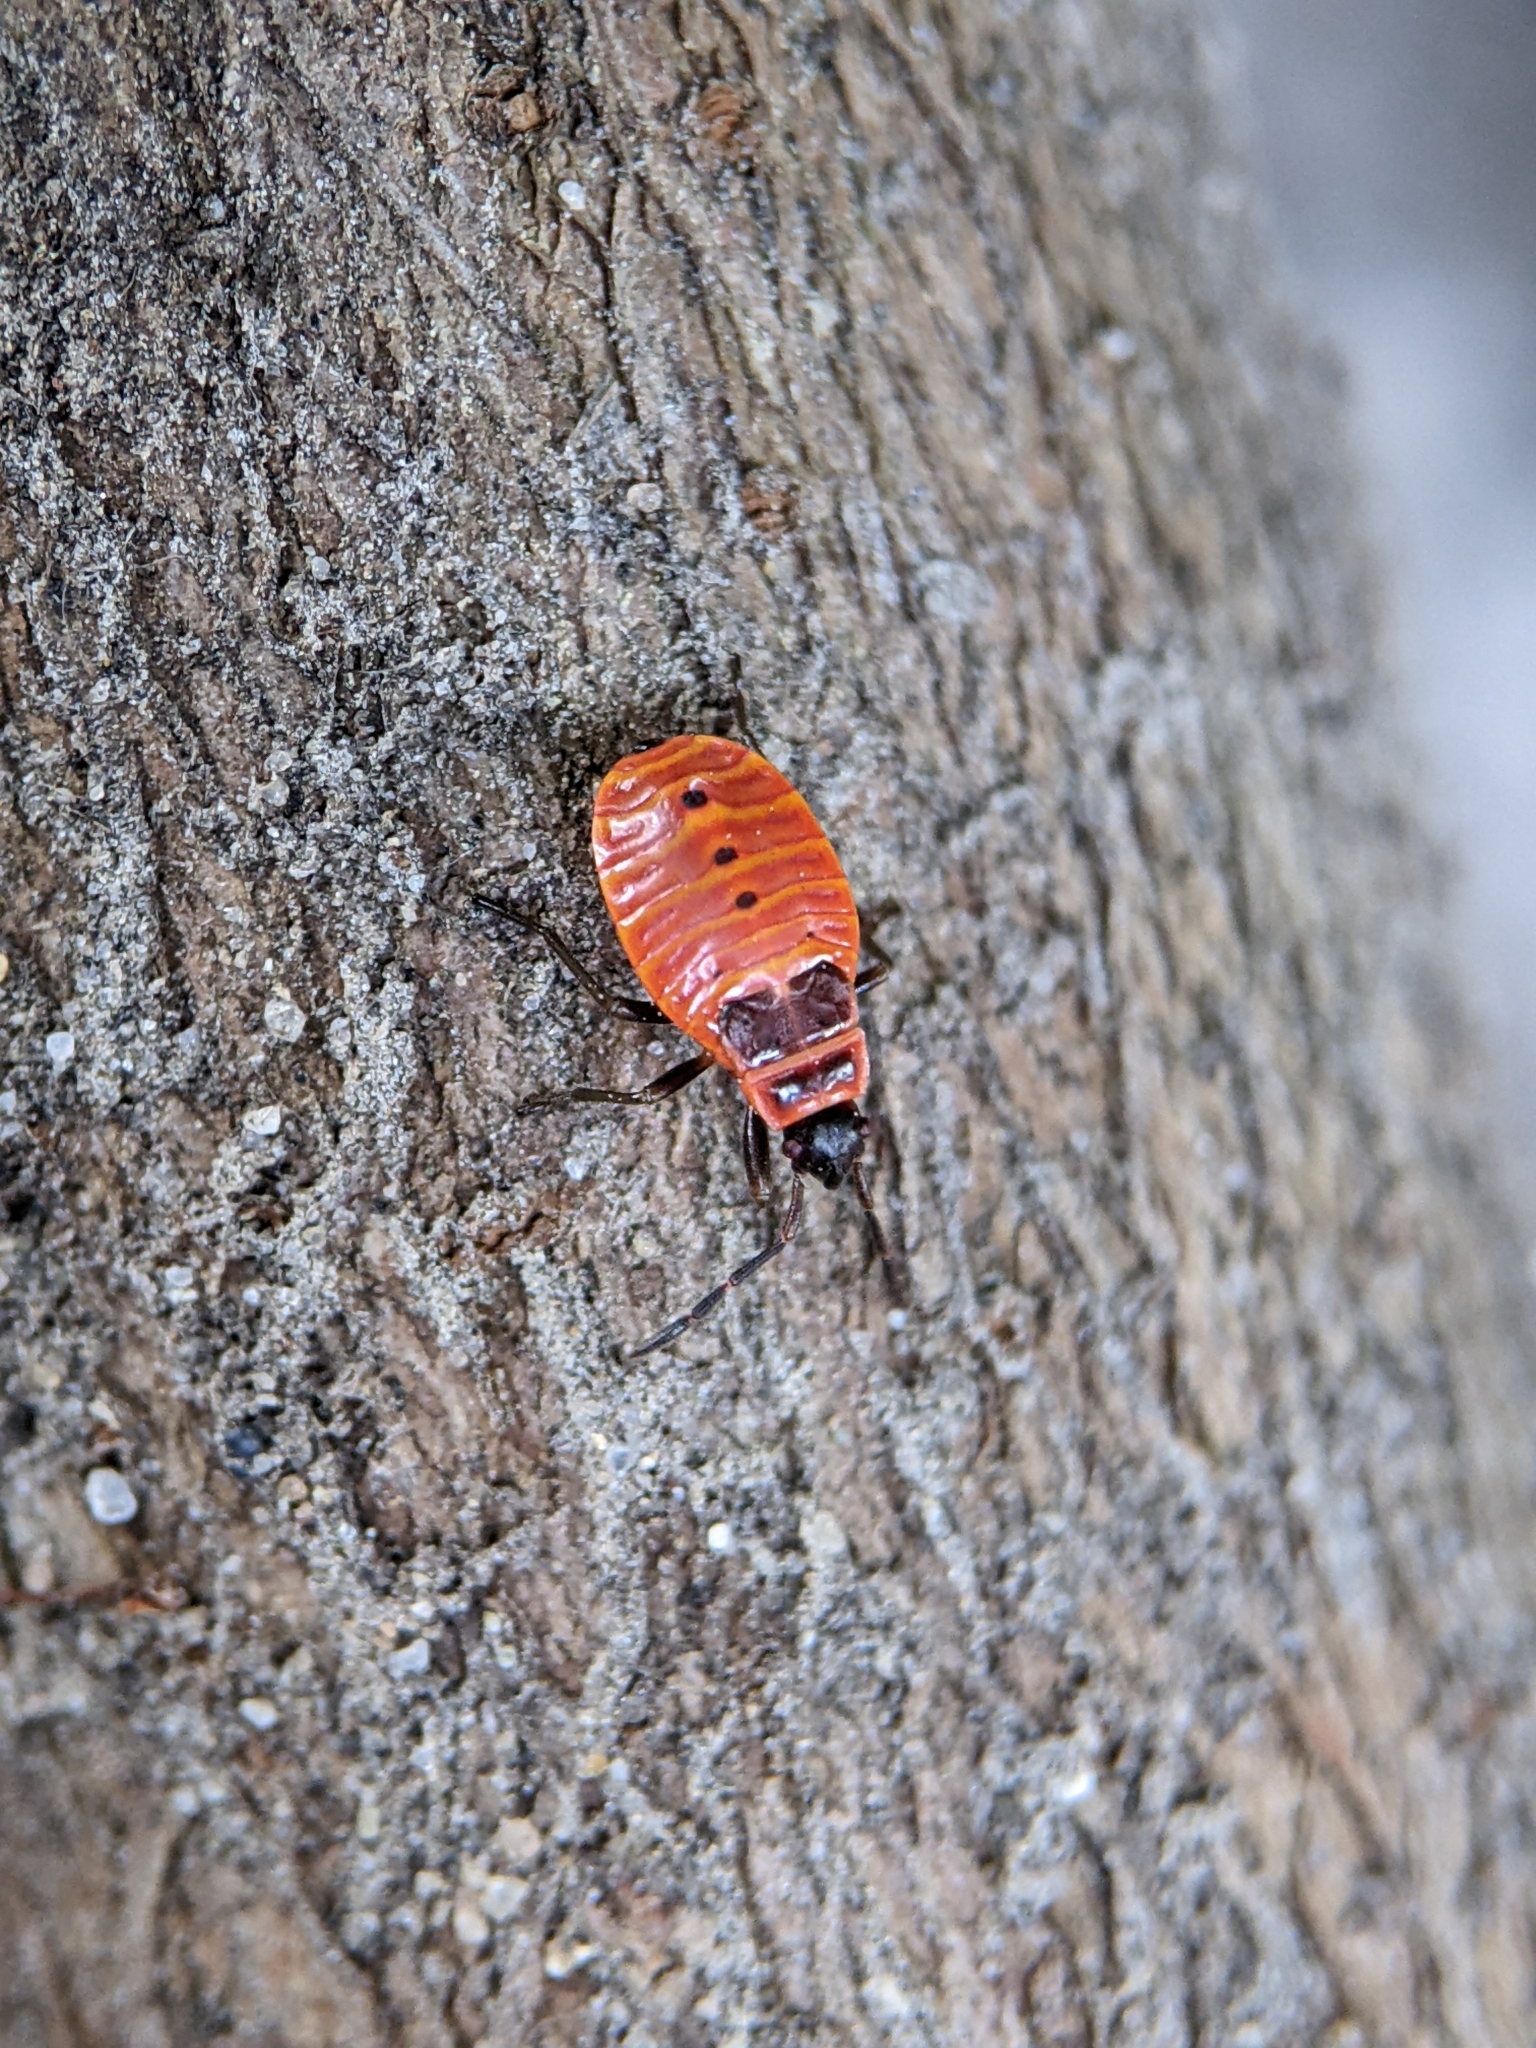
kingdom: Animalia
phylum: Arthropoda
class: Insecta
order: Hemiptera
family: Pyrrhocoridae
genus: Pyrrhocoris
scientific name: Pyrrhocoris apterus
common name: Firebug
